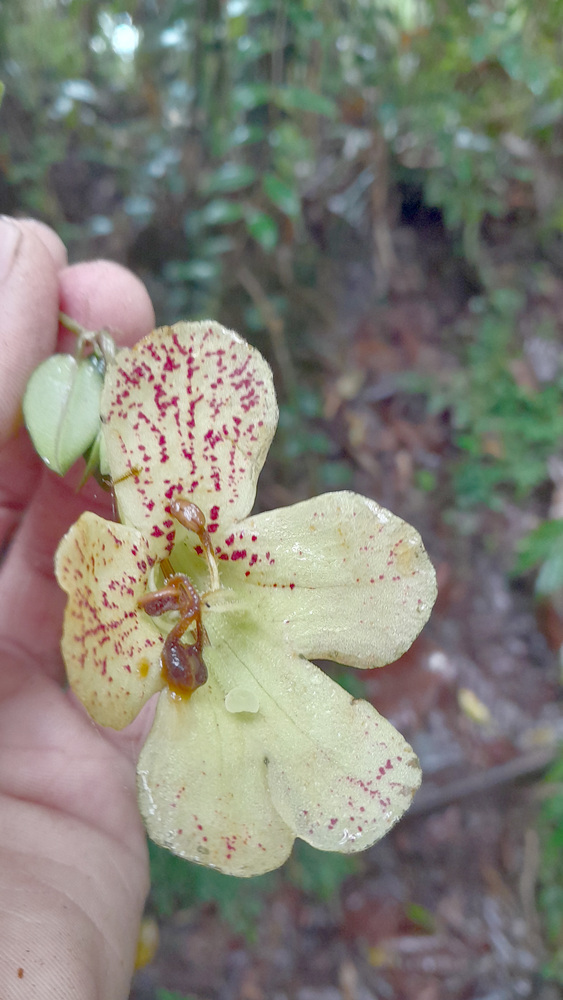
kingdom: Plantae
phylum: Tracheophyta
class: Magnoliopsida
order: Lamiales
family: Gesneriaceae
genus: Aeschynanthus
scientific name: Aeschynanthus batesii
